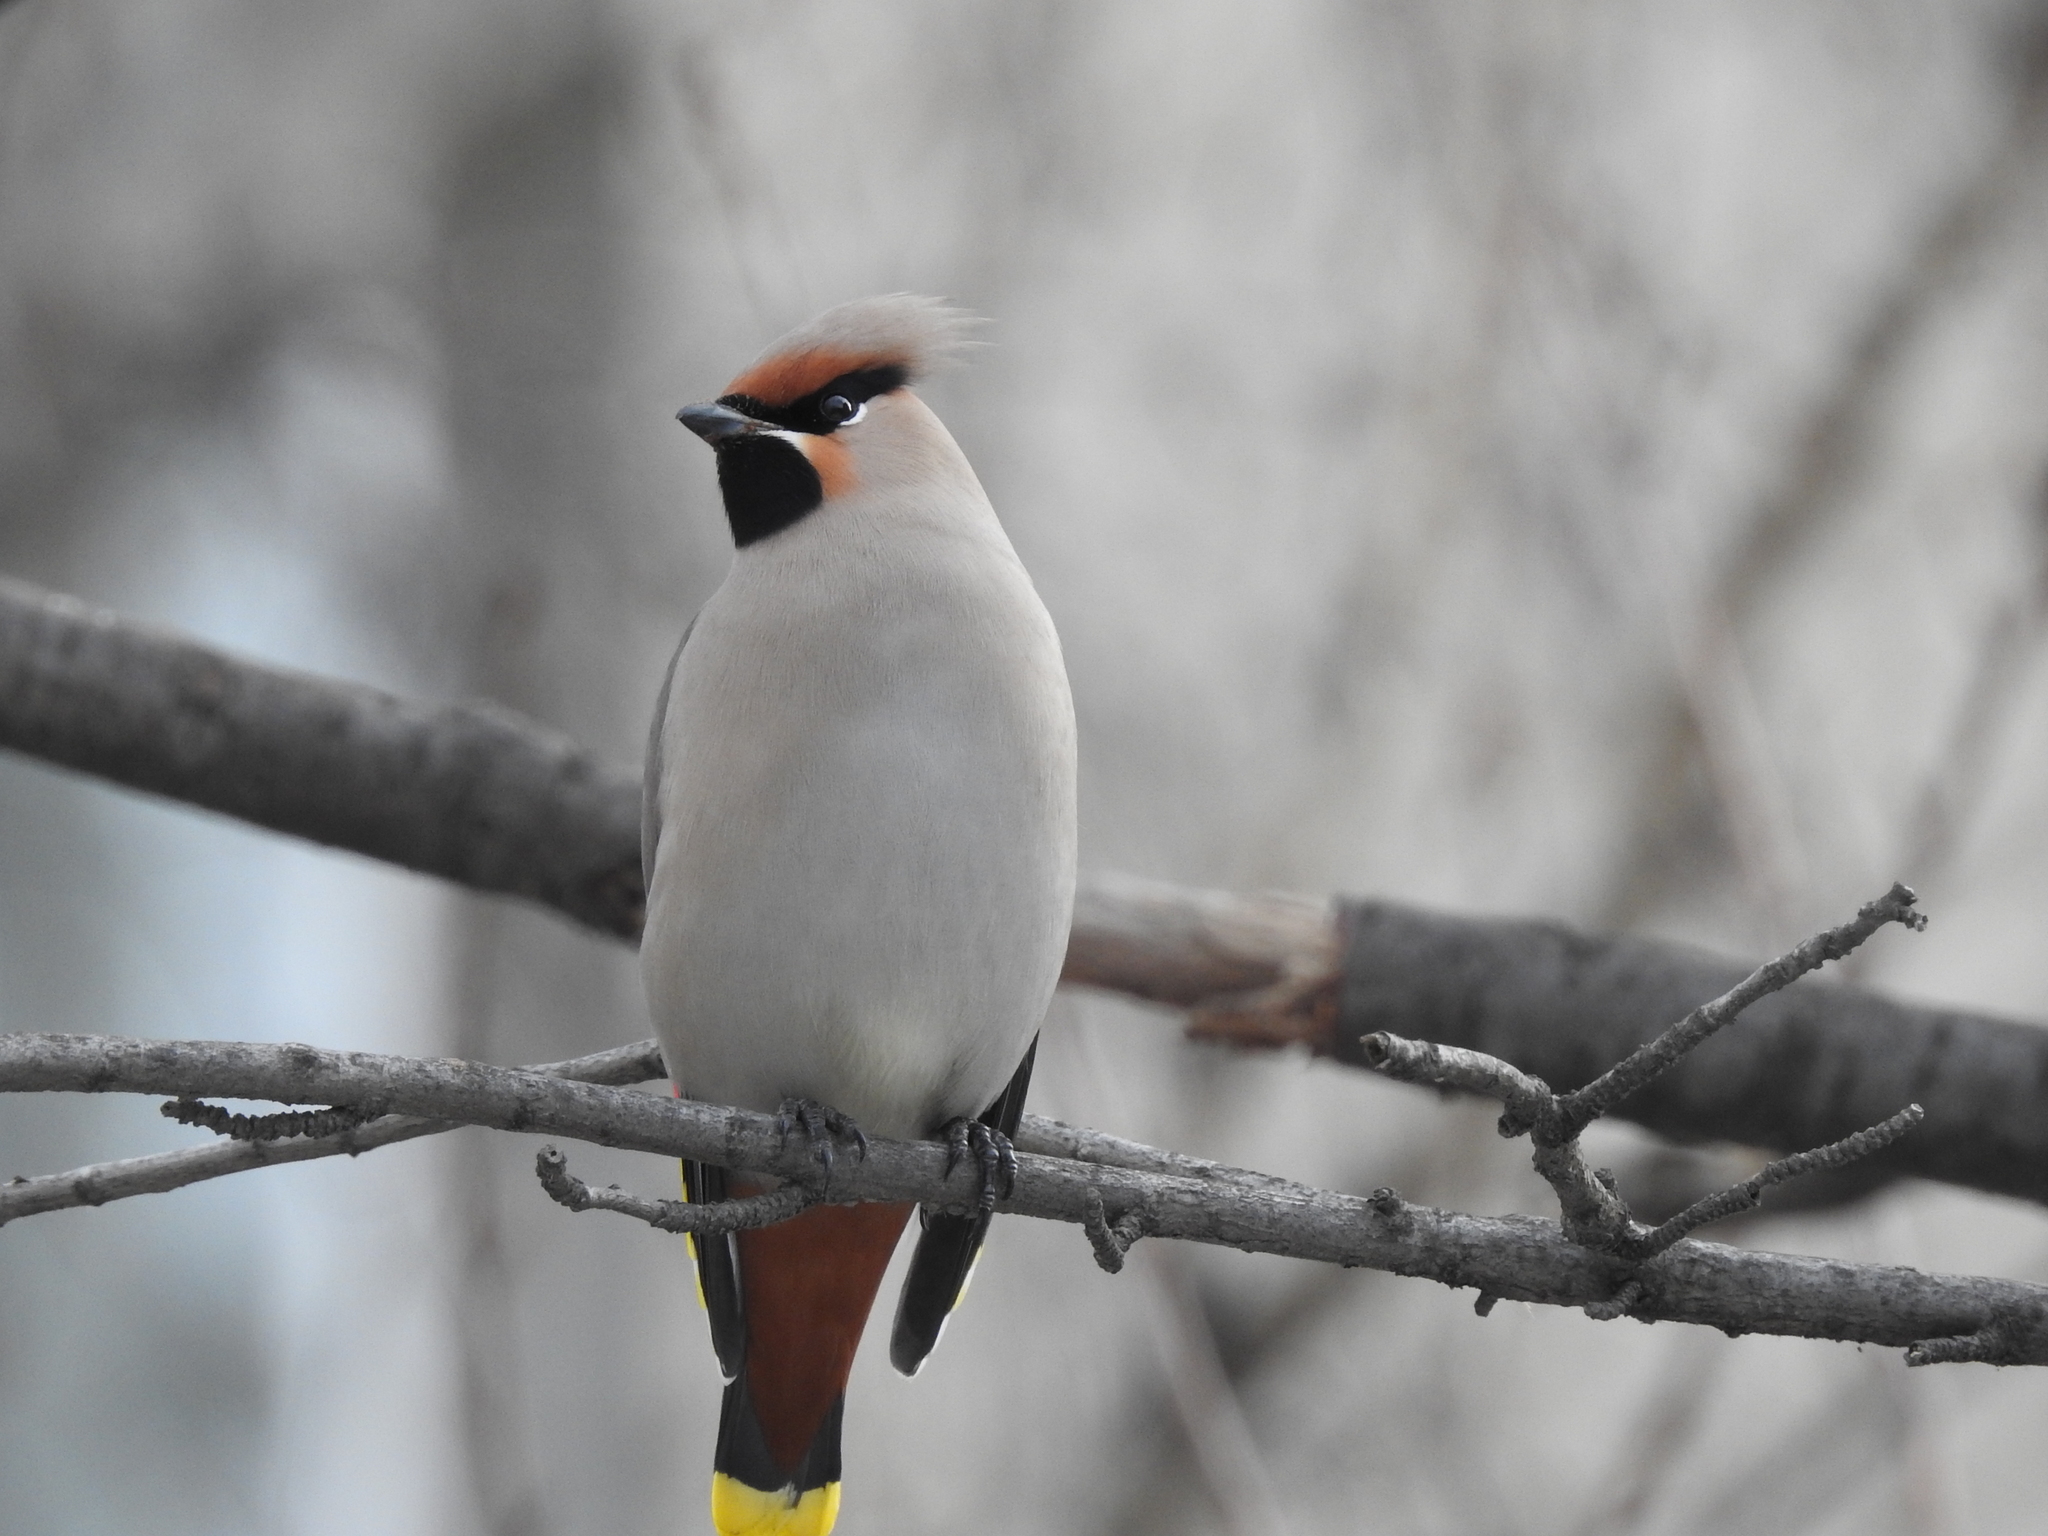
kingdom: Animalia
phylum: Chordata
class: Aves
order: Passeriformes
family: Bombycillidae
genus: Bombycilla
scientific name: Bombycilla garrulus
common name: Bohemian waxwing
